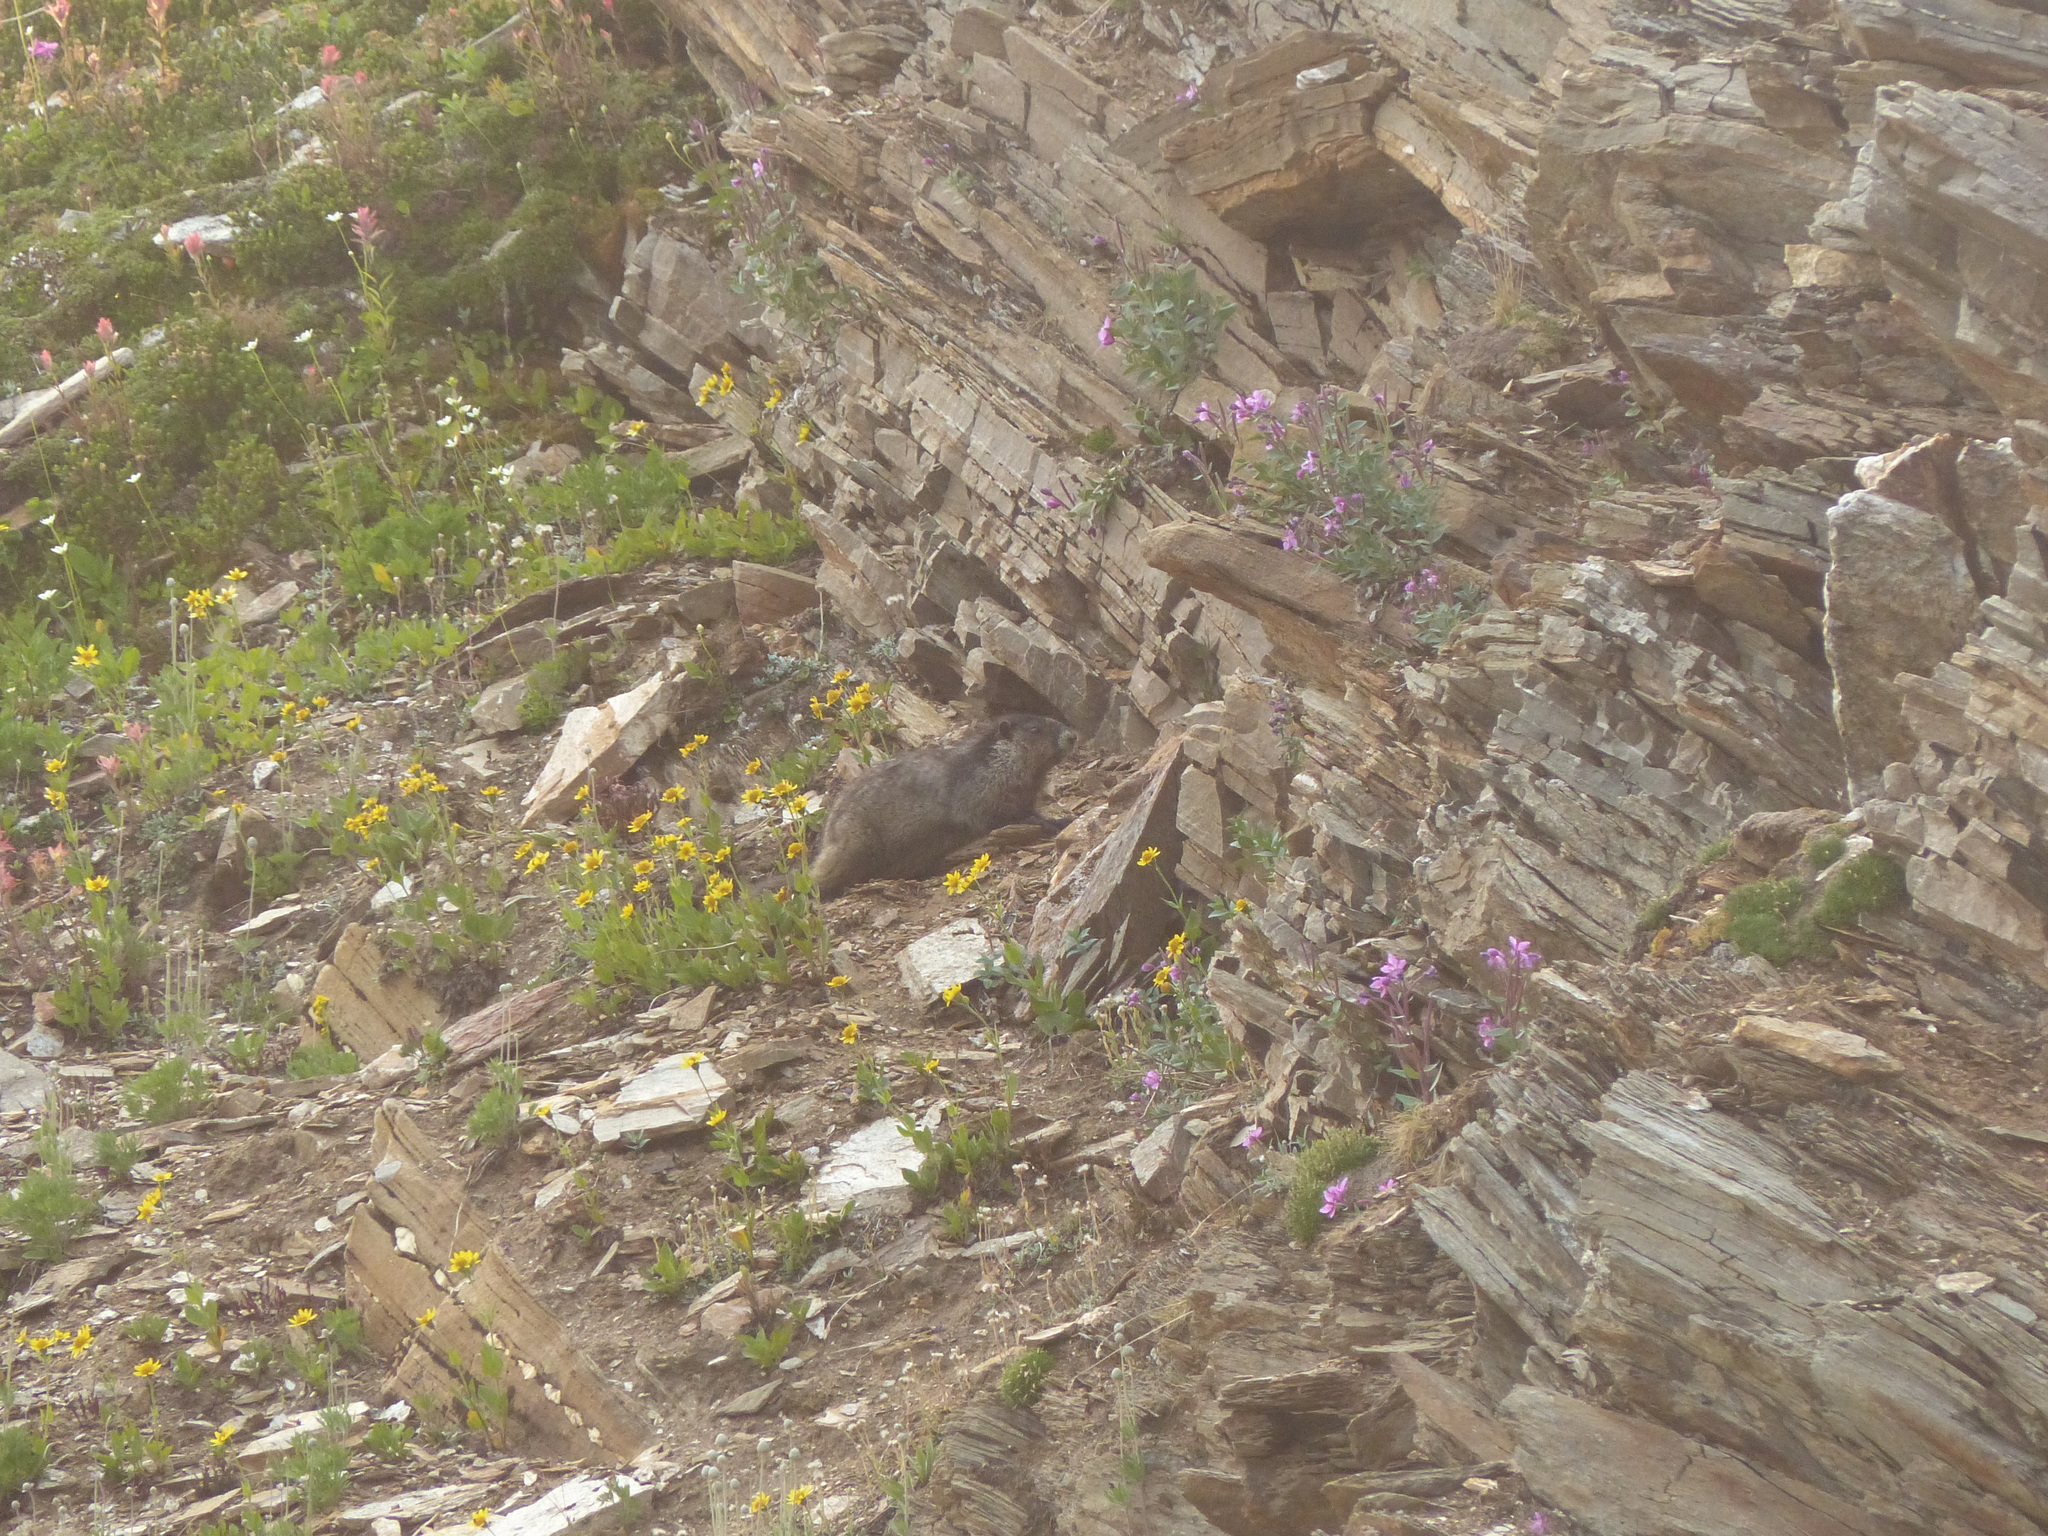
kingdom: Animalia
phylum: Chordata
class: Mammalia
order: Rodentia
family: Sciuridae
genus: Marmota
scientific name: Marmota caligata
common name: Hoary marmot
